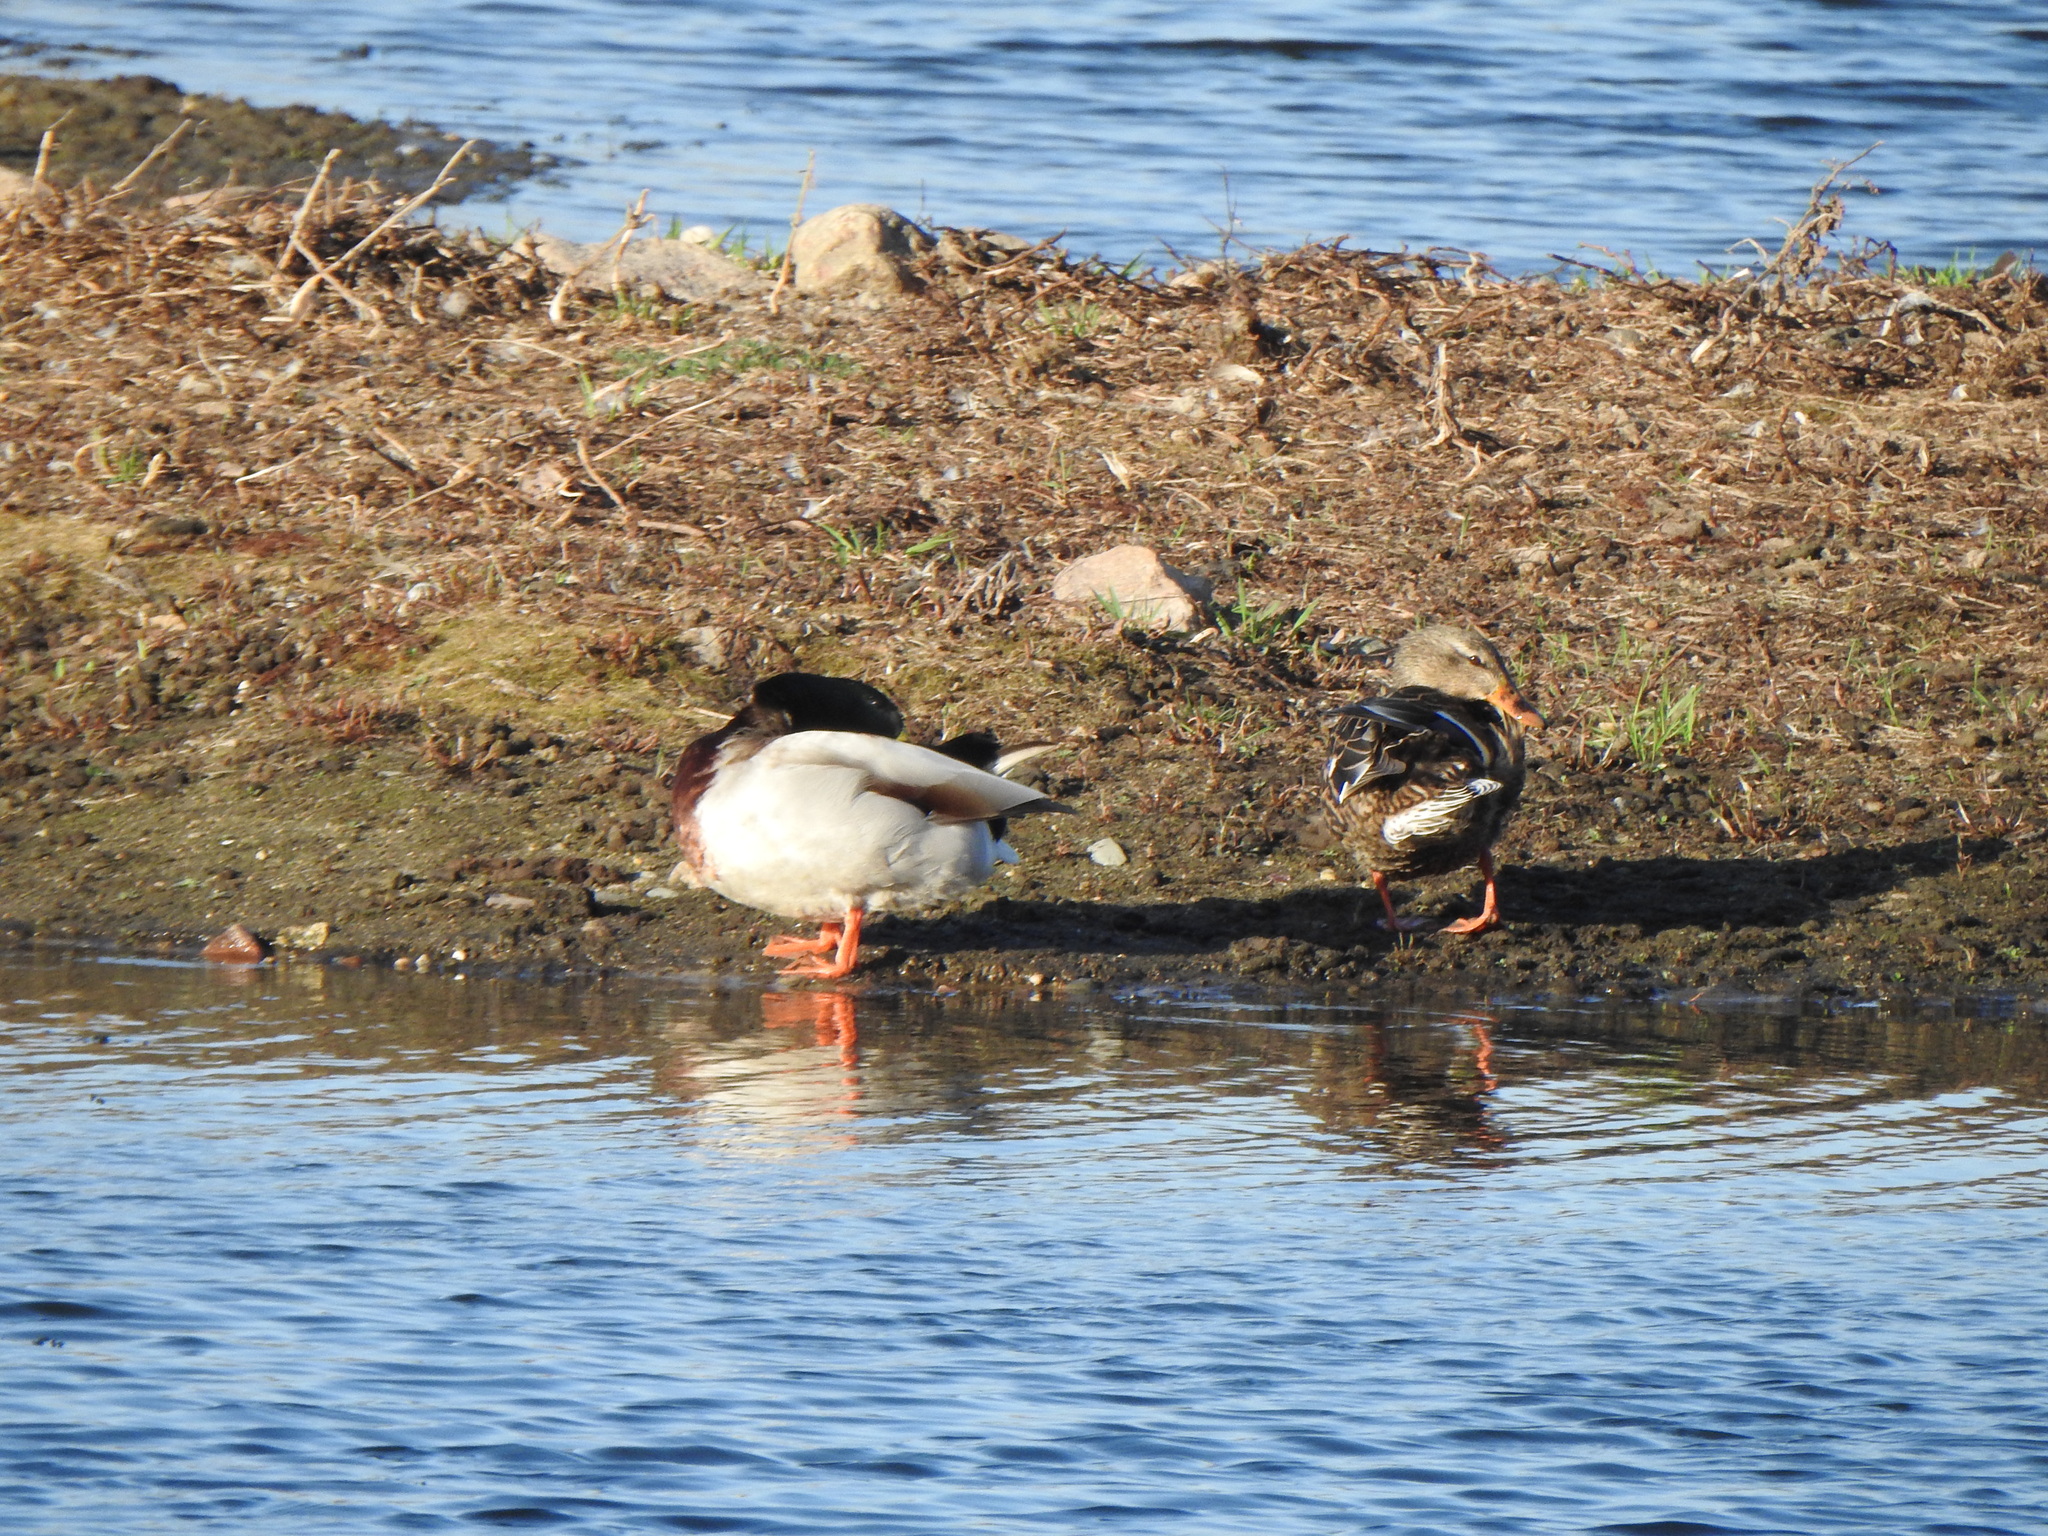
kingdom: Animalia
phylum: Chordata
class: Aves
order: Anseriformes
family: Anatidae
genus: Anas
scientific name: Anas platyrhynchos
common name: Mallard
